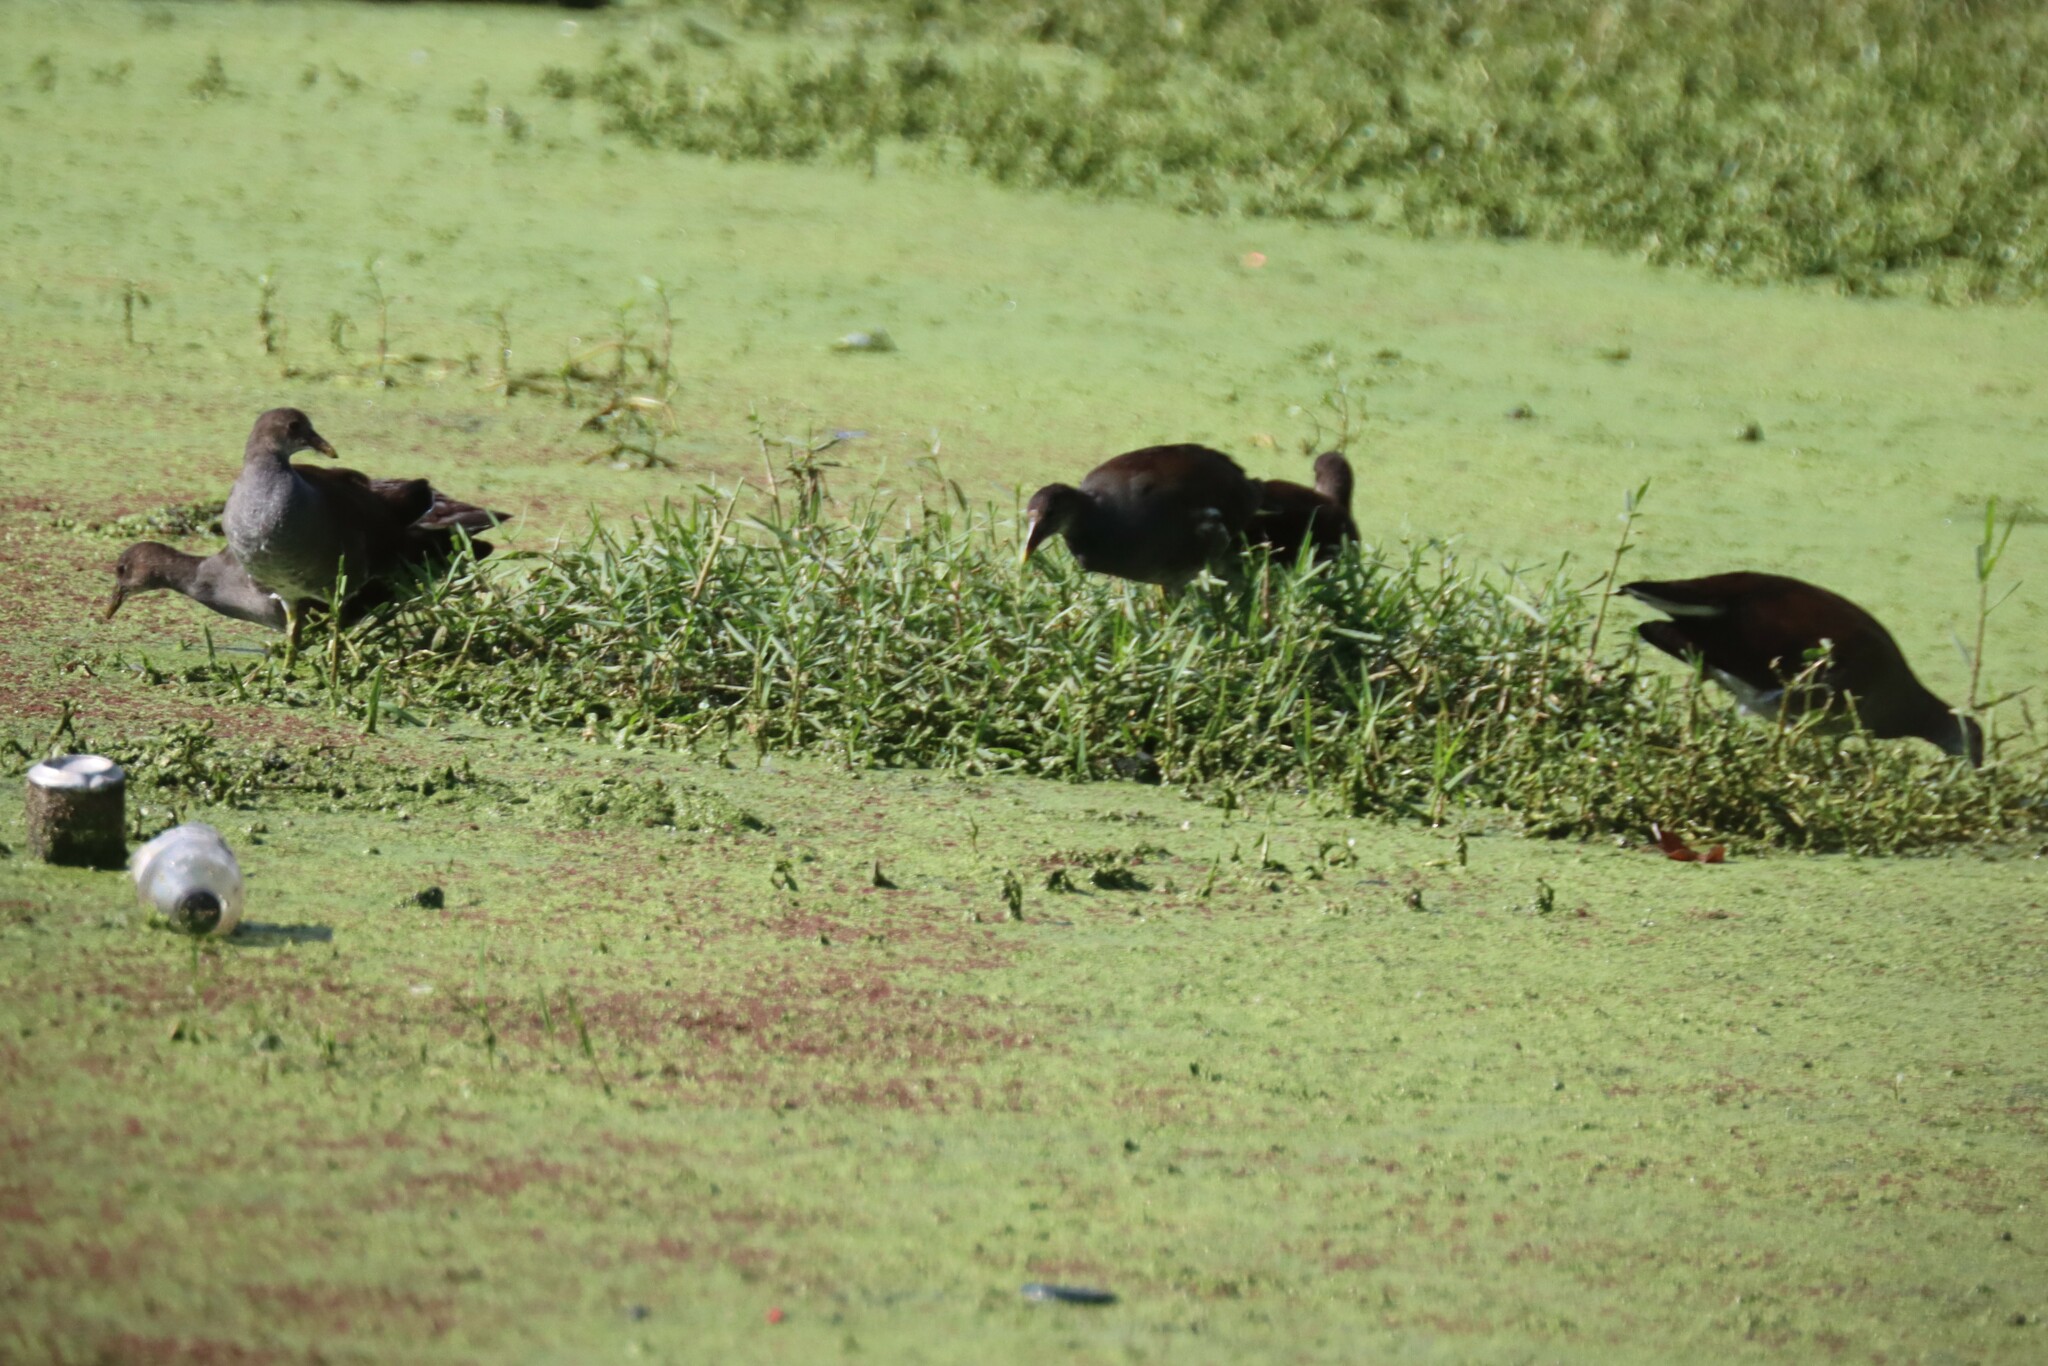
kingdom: Animalia
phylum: Chordata
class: Aves
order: Gruiformes
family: Rallidae
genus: Gallinula
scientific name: Gallinula chloropus
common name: Common moorhen
